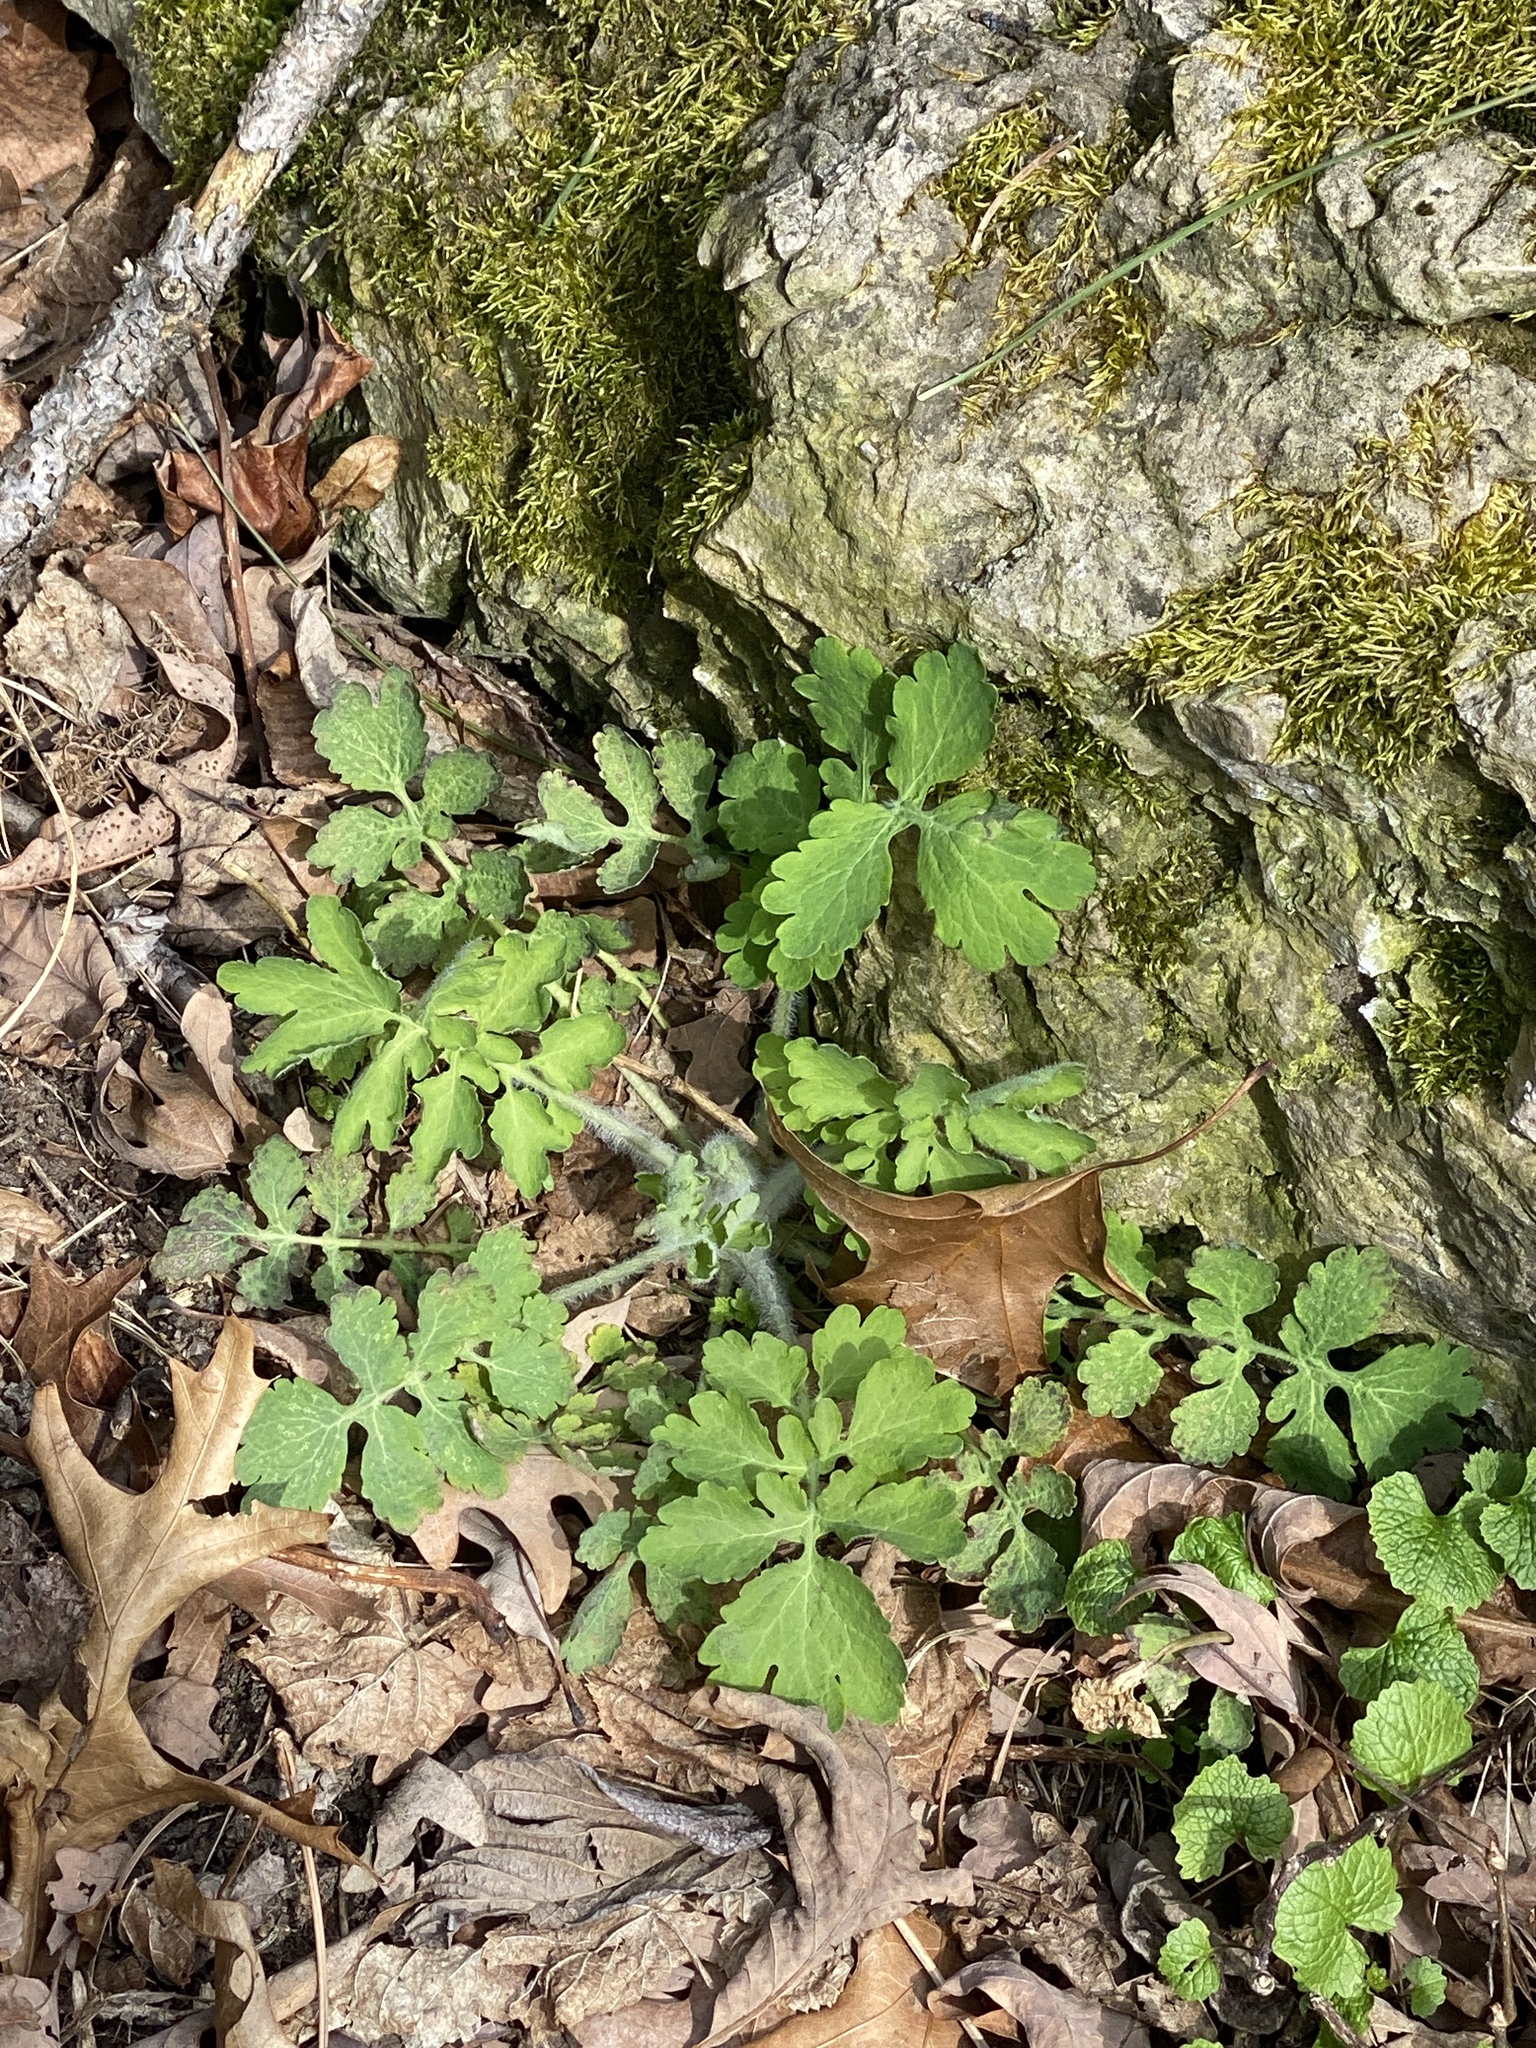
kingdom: Plantae
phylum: Tracheophyta
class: Magnoliopsida
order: Ranunculales
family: Papaveraceae
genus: Chelidonium
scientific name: Chelidonium majus
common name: Greater celandine
